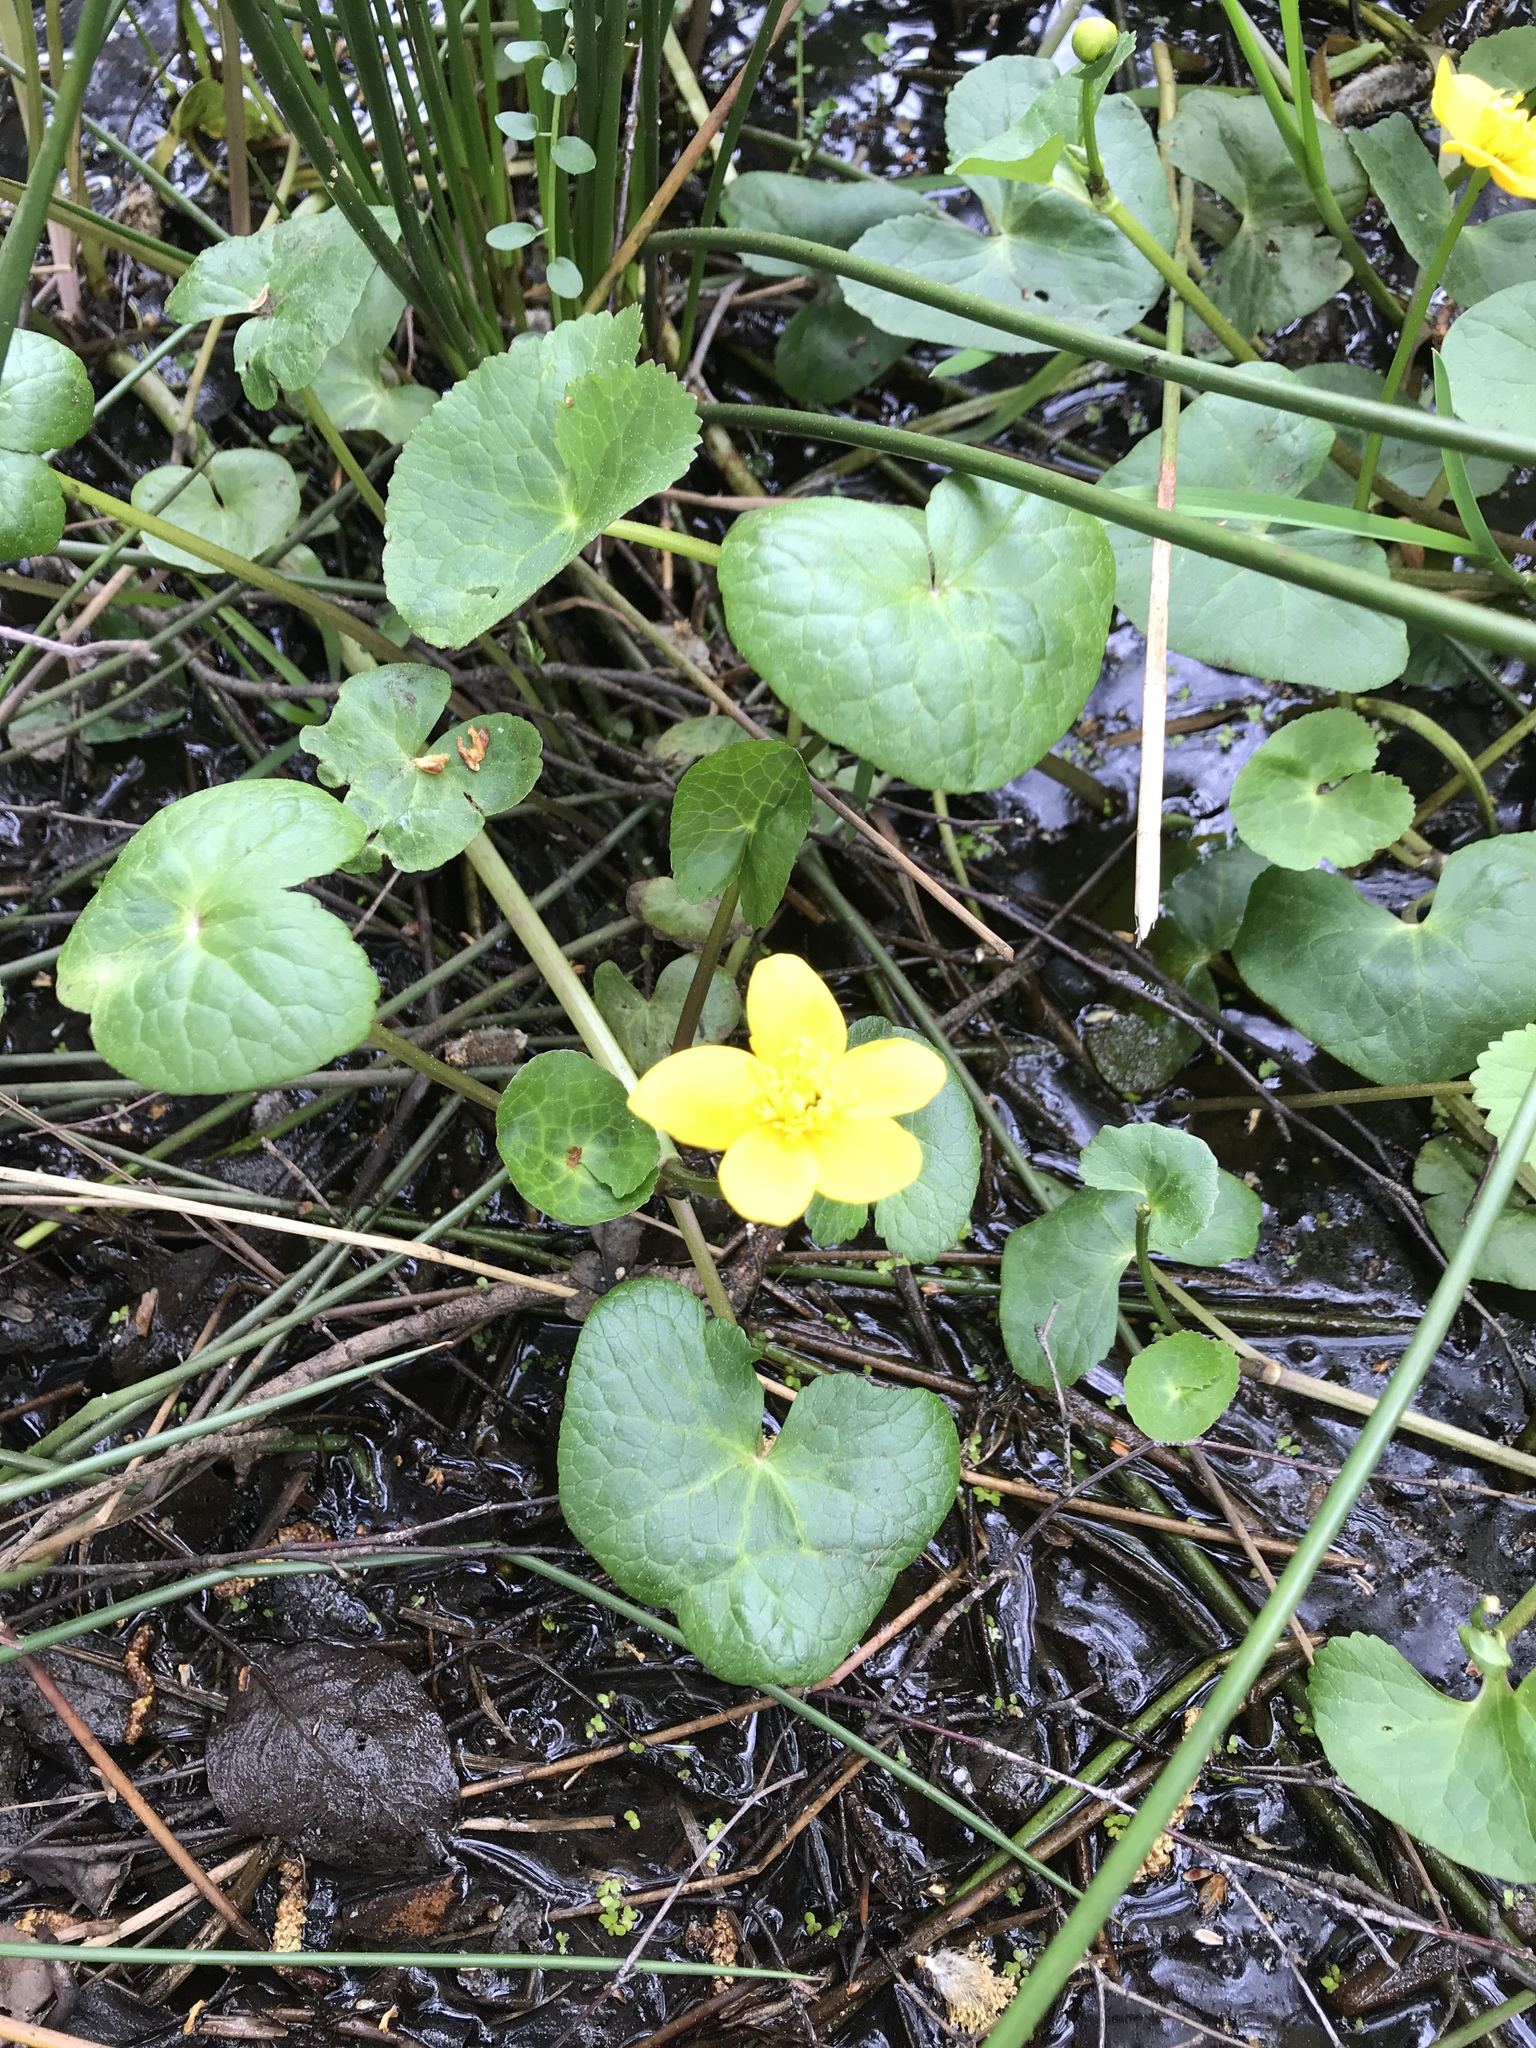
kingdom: Plantae
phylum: Tracheophyta
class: Magnoliopsida
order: Ranunculales
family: Ranunculaceae
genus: Caltha
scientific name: Caltha palustris
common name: Marsh marigold
